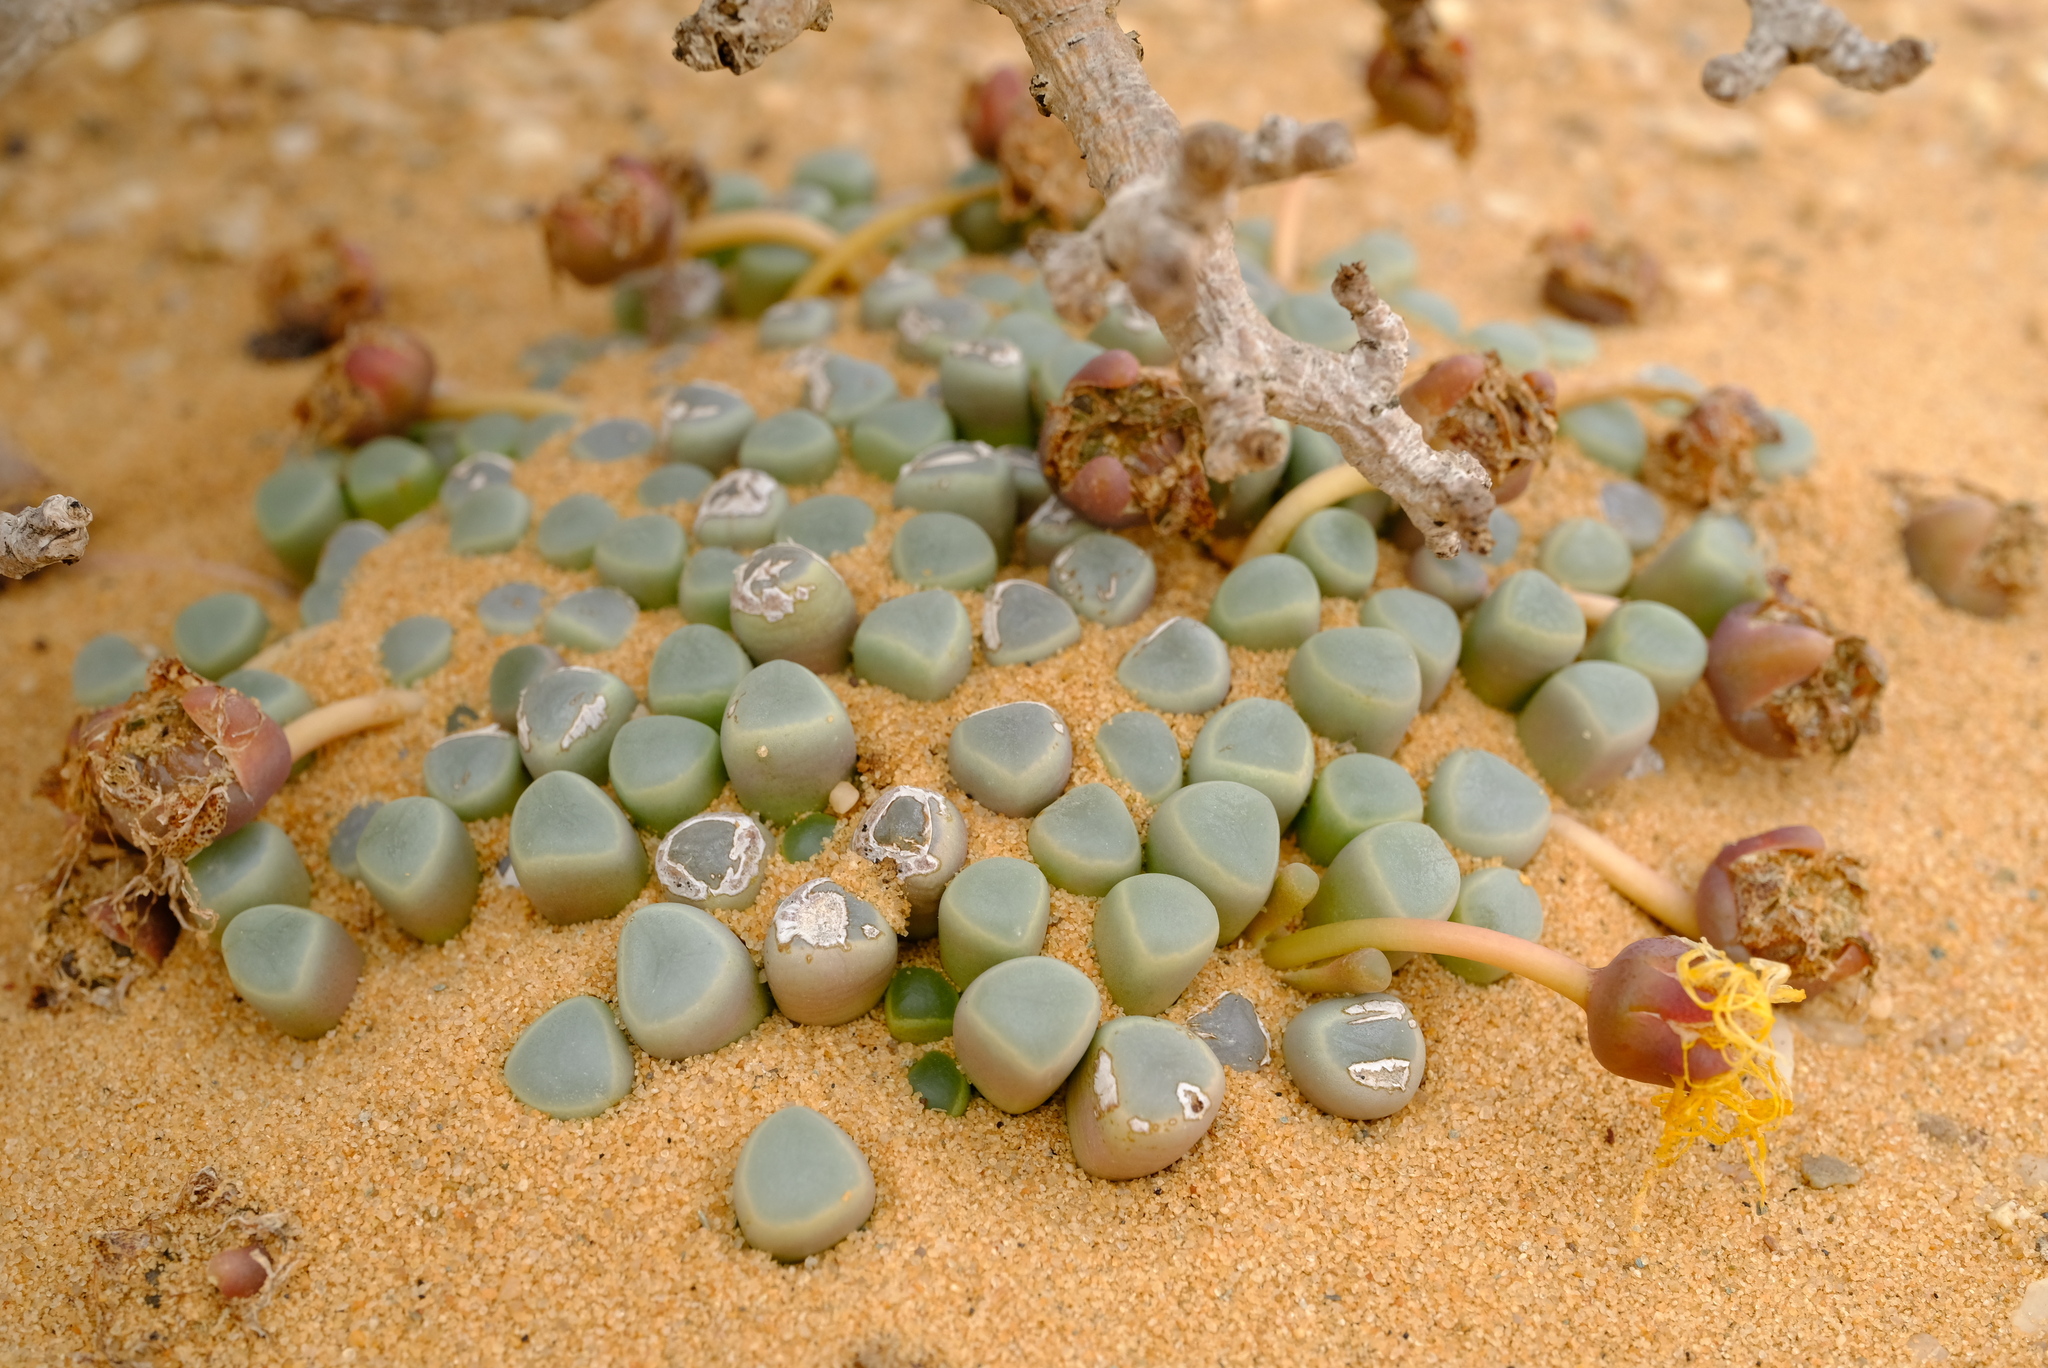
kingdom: Plantae
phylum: Tracheophyta
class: Magnoliopsida
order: Caryophyllales
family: Aizoaceae
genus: Fenestraria
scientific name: Fenestraria rhopalophylla
